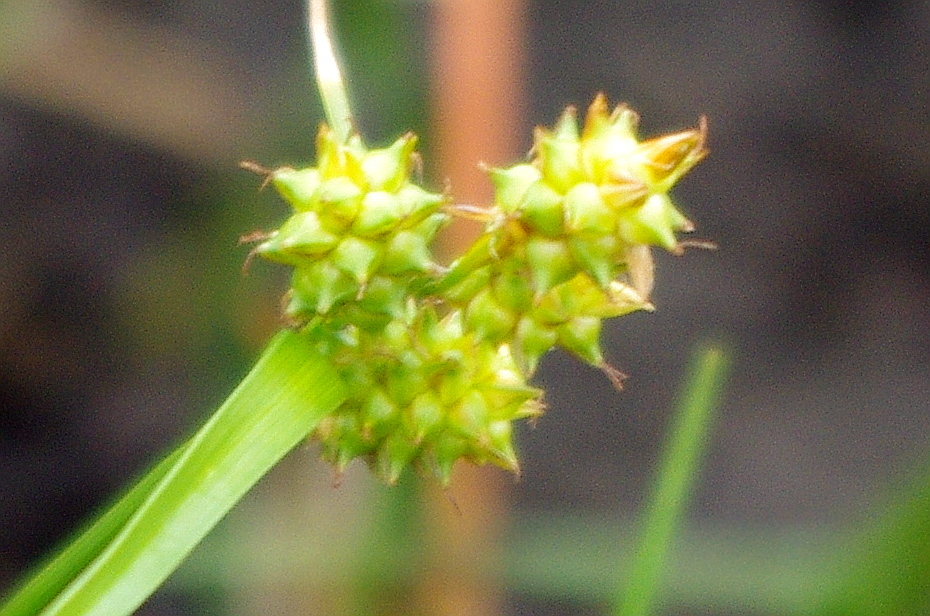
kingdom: Plantae
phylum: Tracheophyta
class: Liliopsida
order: Poales
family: Cyperaceae
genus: Carex
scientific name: Carex
